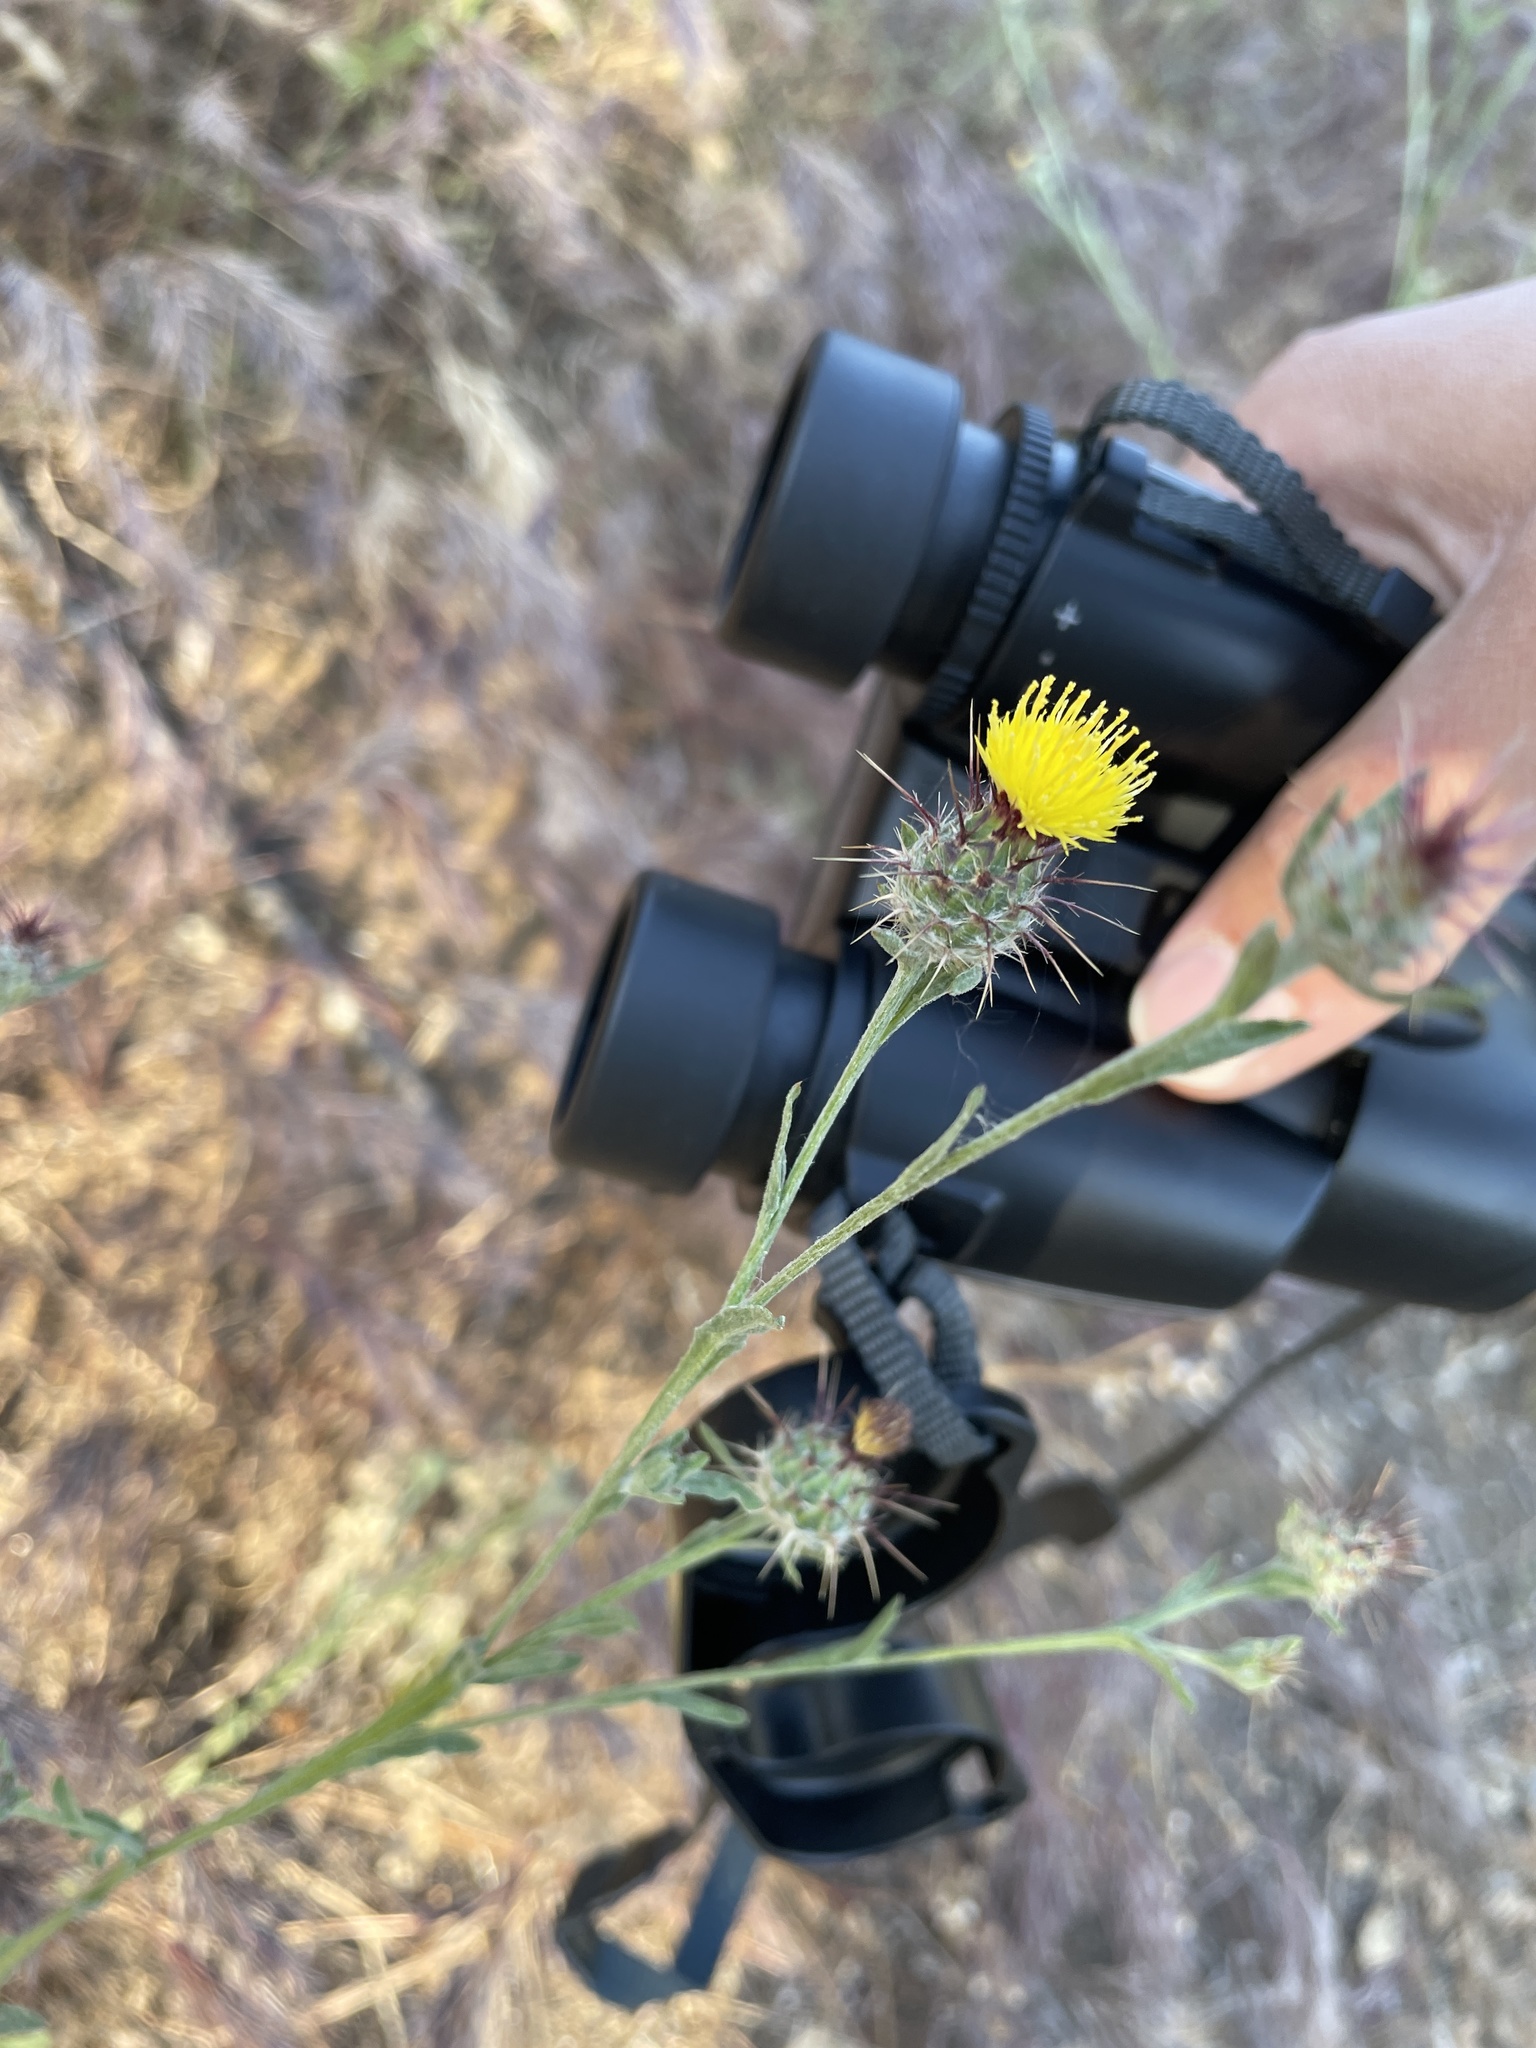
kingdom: Plantae
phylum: Tracheophyta
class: Magnoliopsida
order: Asterales
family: Asteraceae
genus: Centaurea
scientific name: Centaurea melitensis
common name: Maltese star-thistle
